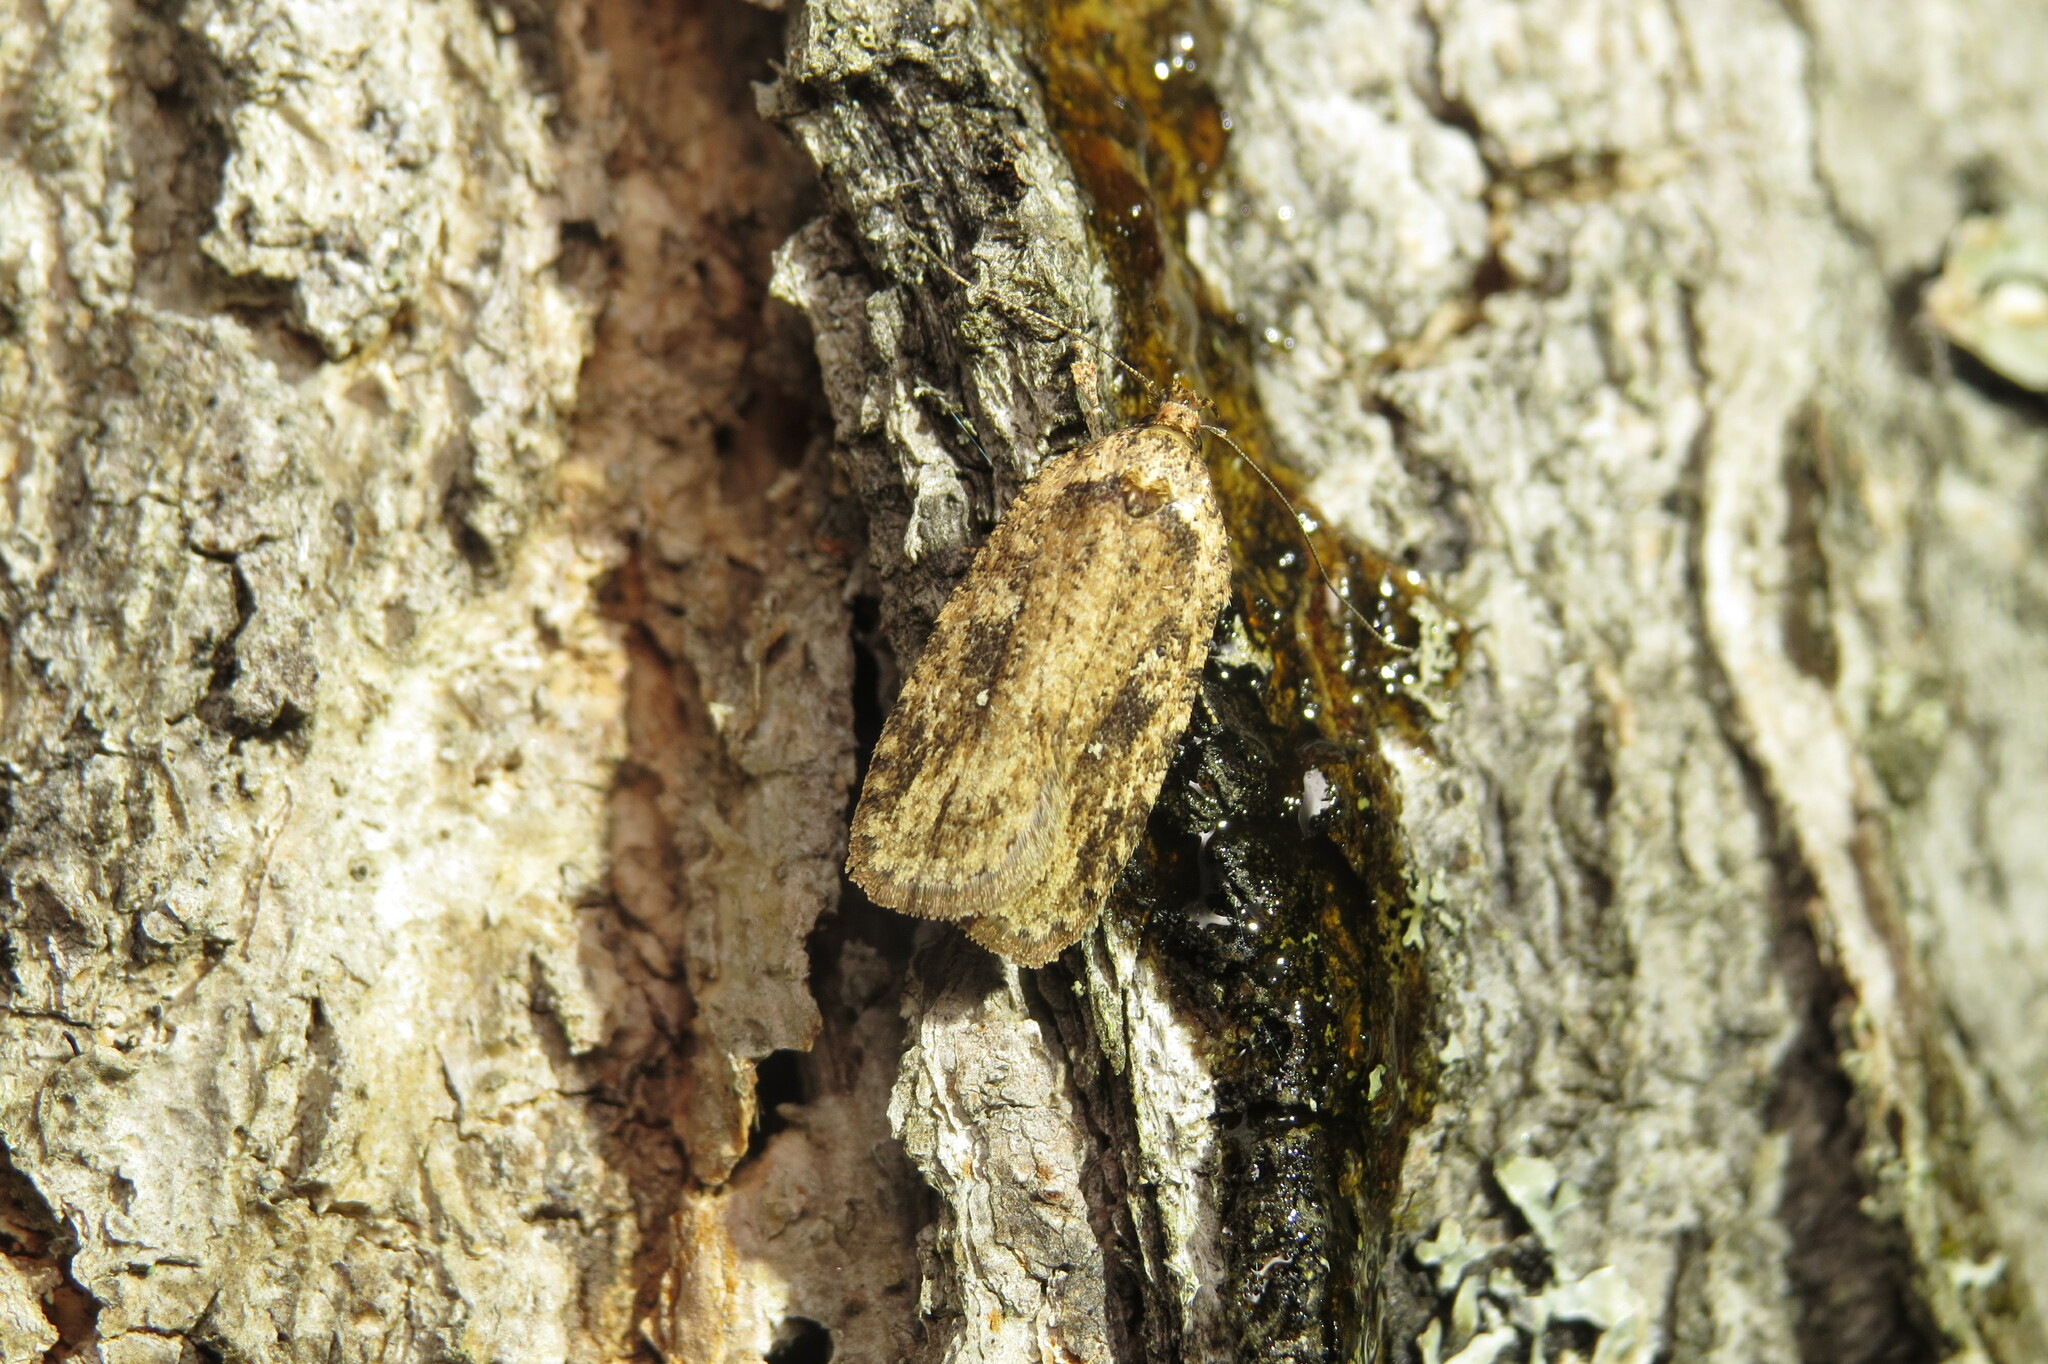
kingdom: Animalia
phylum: Arthropoda
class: Insecta
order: Lepidoptera
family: Depressariidae
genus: Agonopterix
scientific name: Agonopterix pulvipennella
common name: Goldenrod leafffolder
